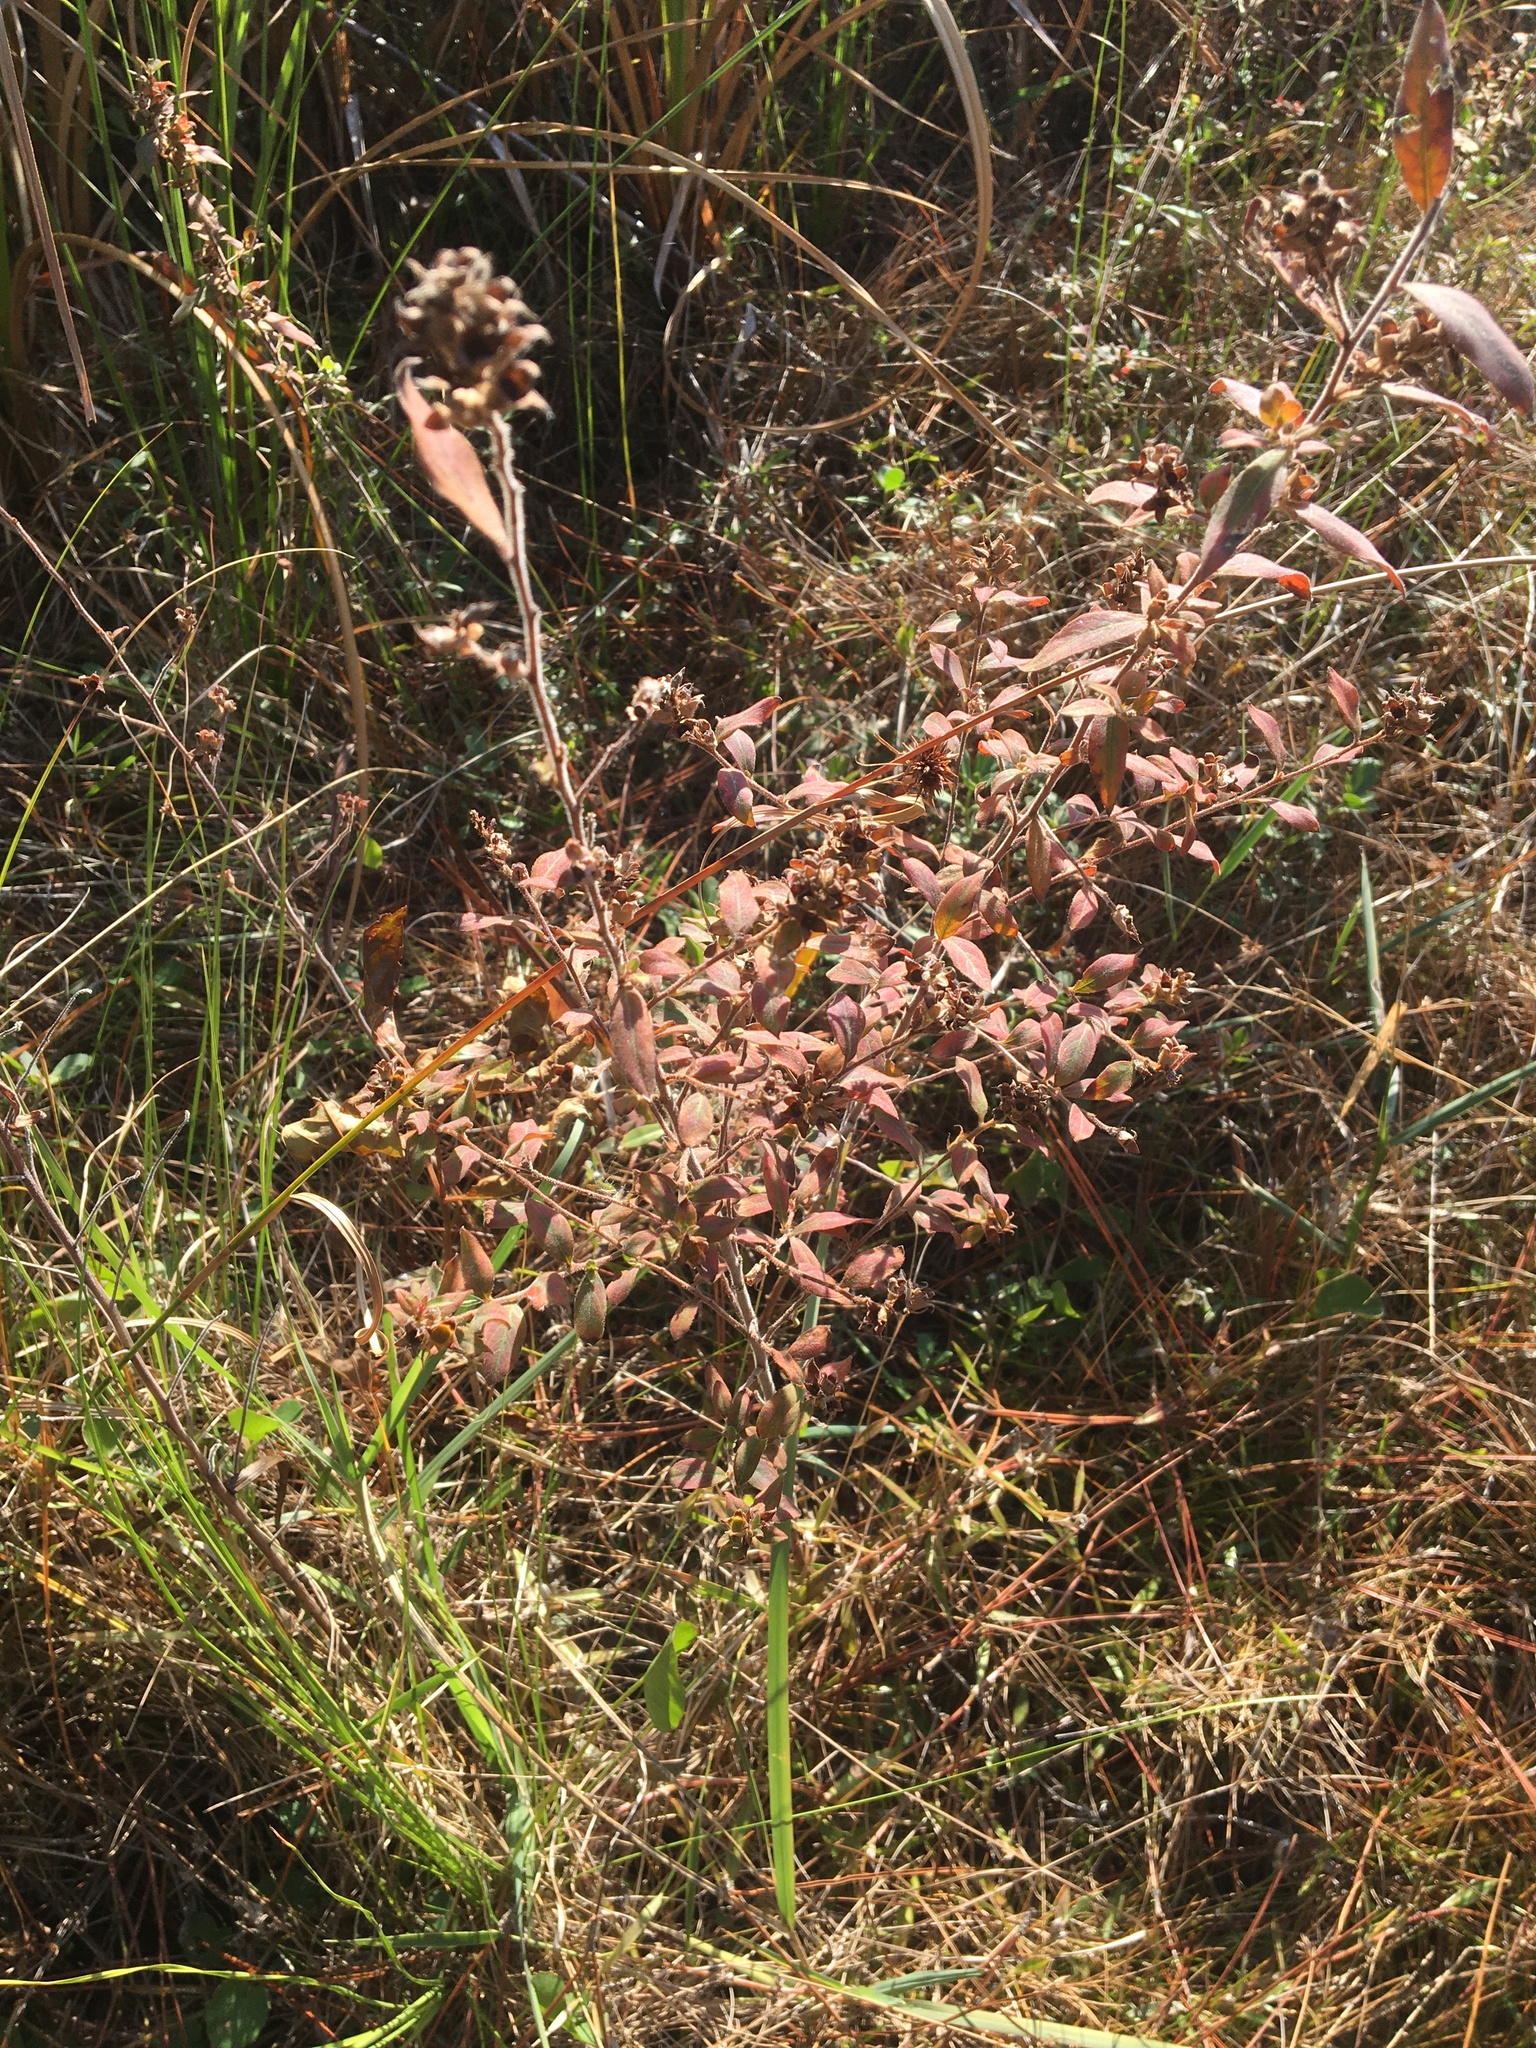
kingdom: Plantae
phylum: Tracheophyta
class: Magnoliopsida
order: Myrtales
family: Onagraceae
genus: Ludwigia
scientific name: Ludwigia pilosa
